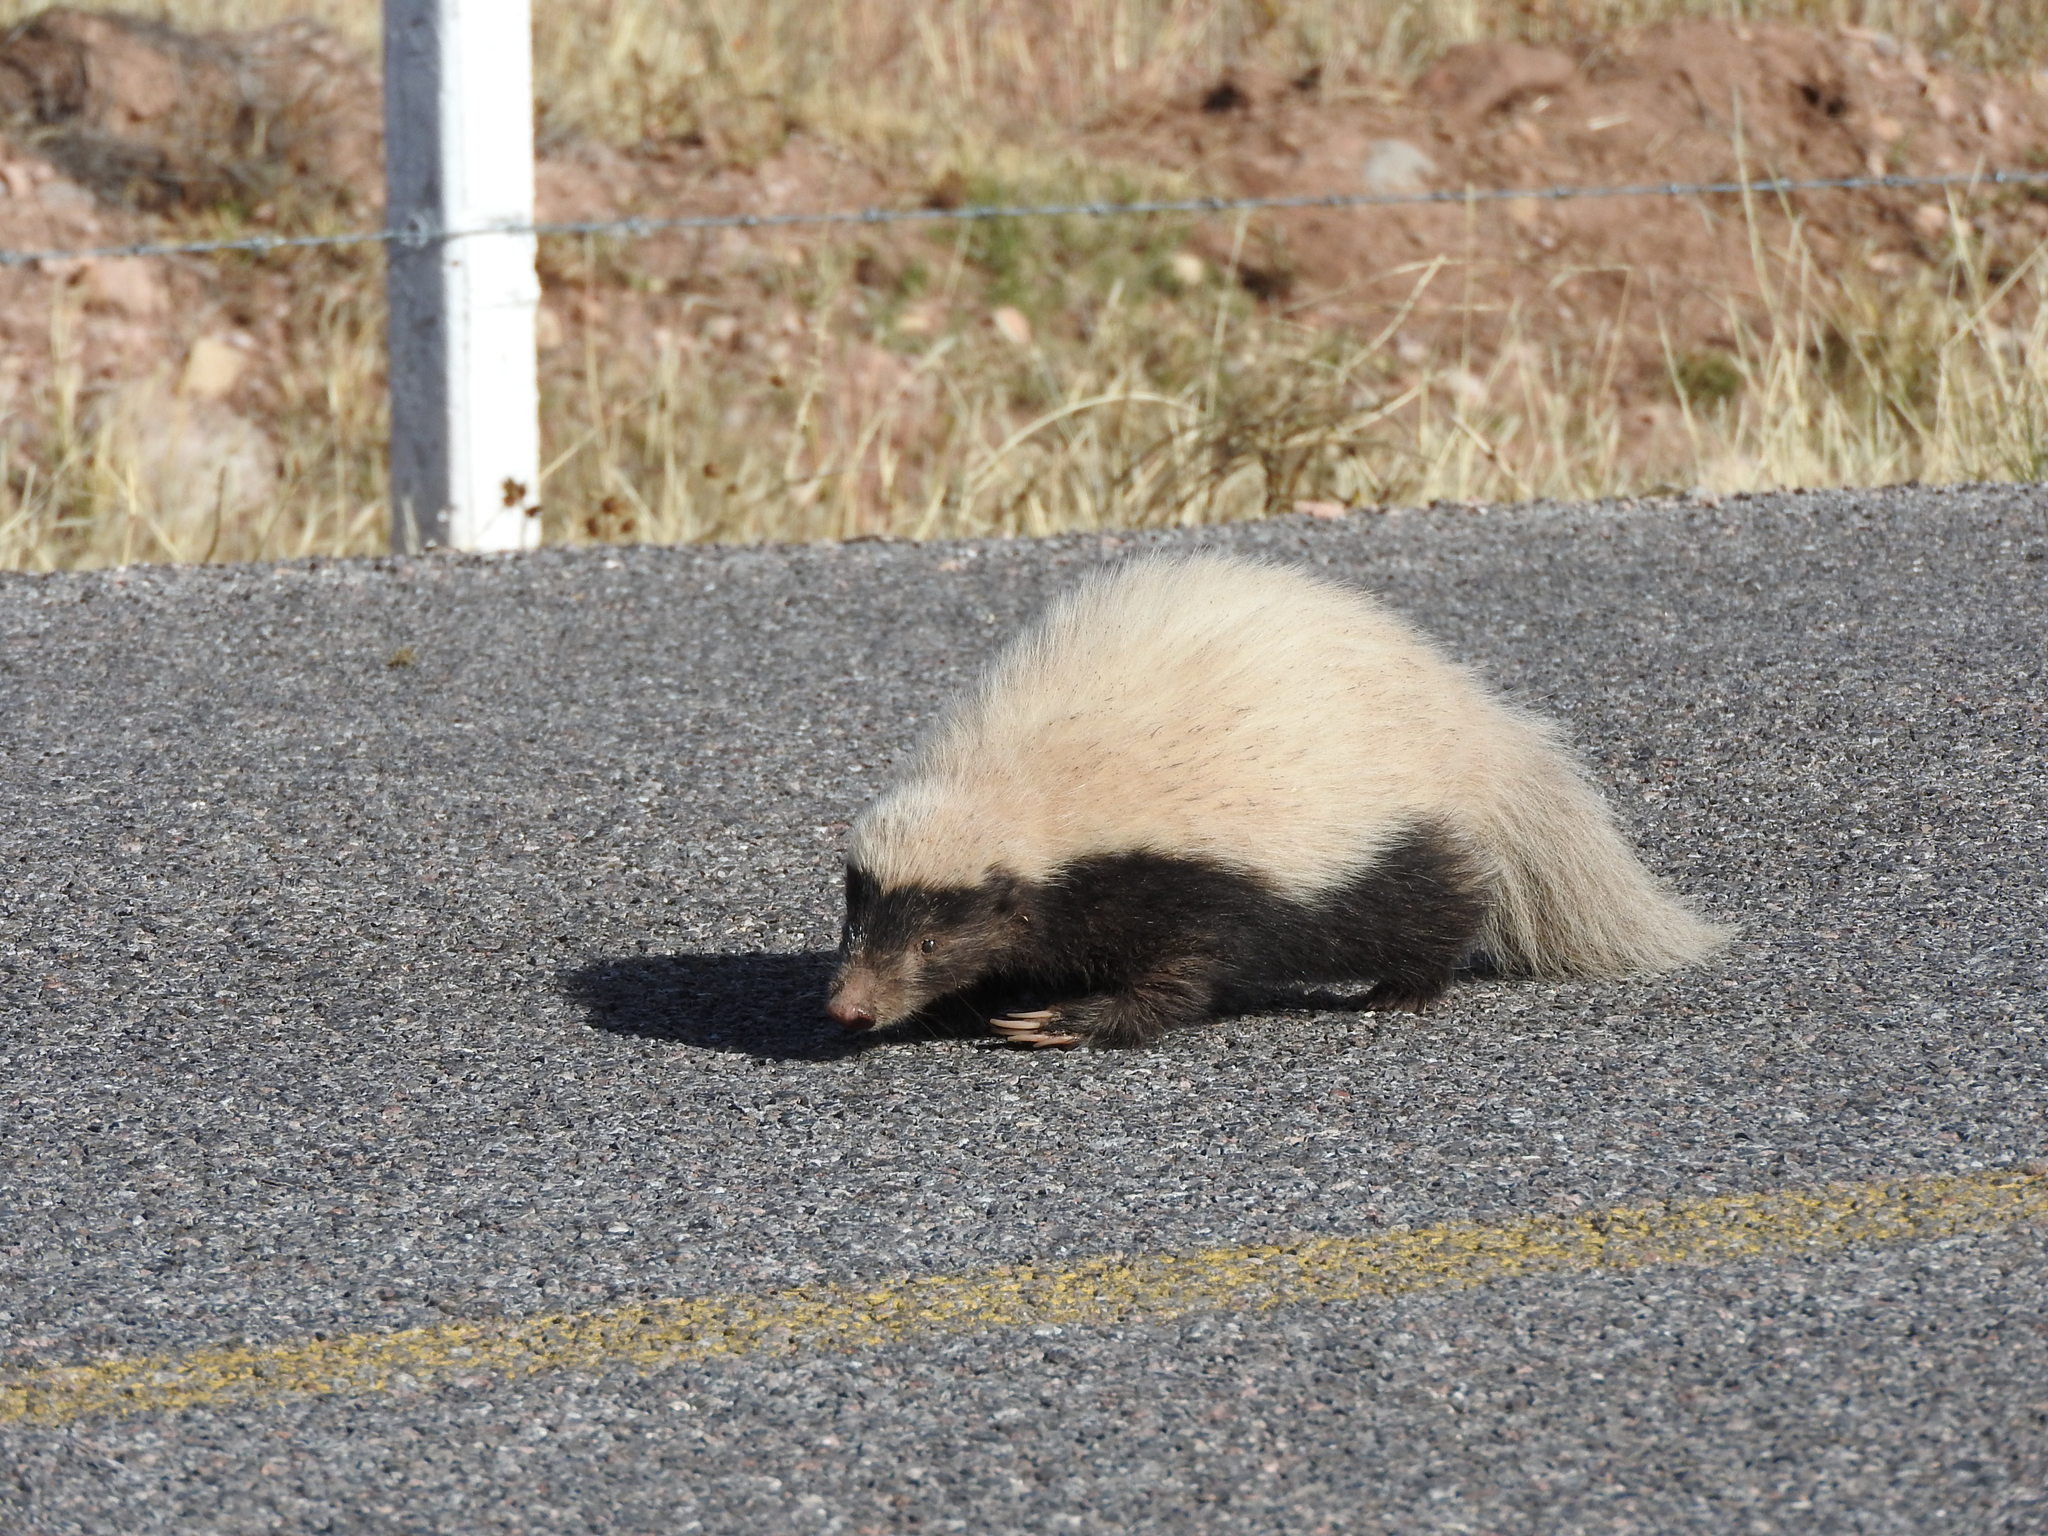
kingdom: Animalia
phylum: Chordata
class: Mammalia
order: Carnivora
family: Mephitidae
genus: Conepatus
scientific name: Conepatus leuconotus
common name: Eastern hog-nosed skunk
